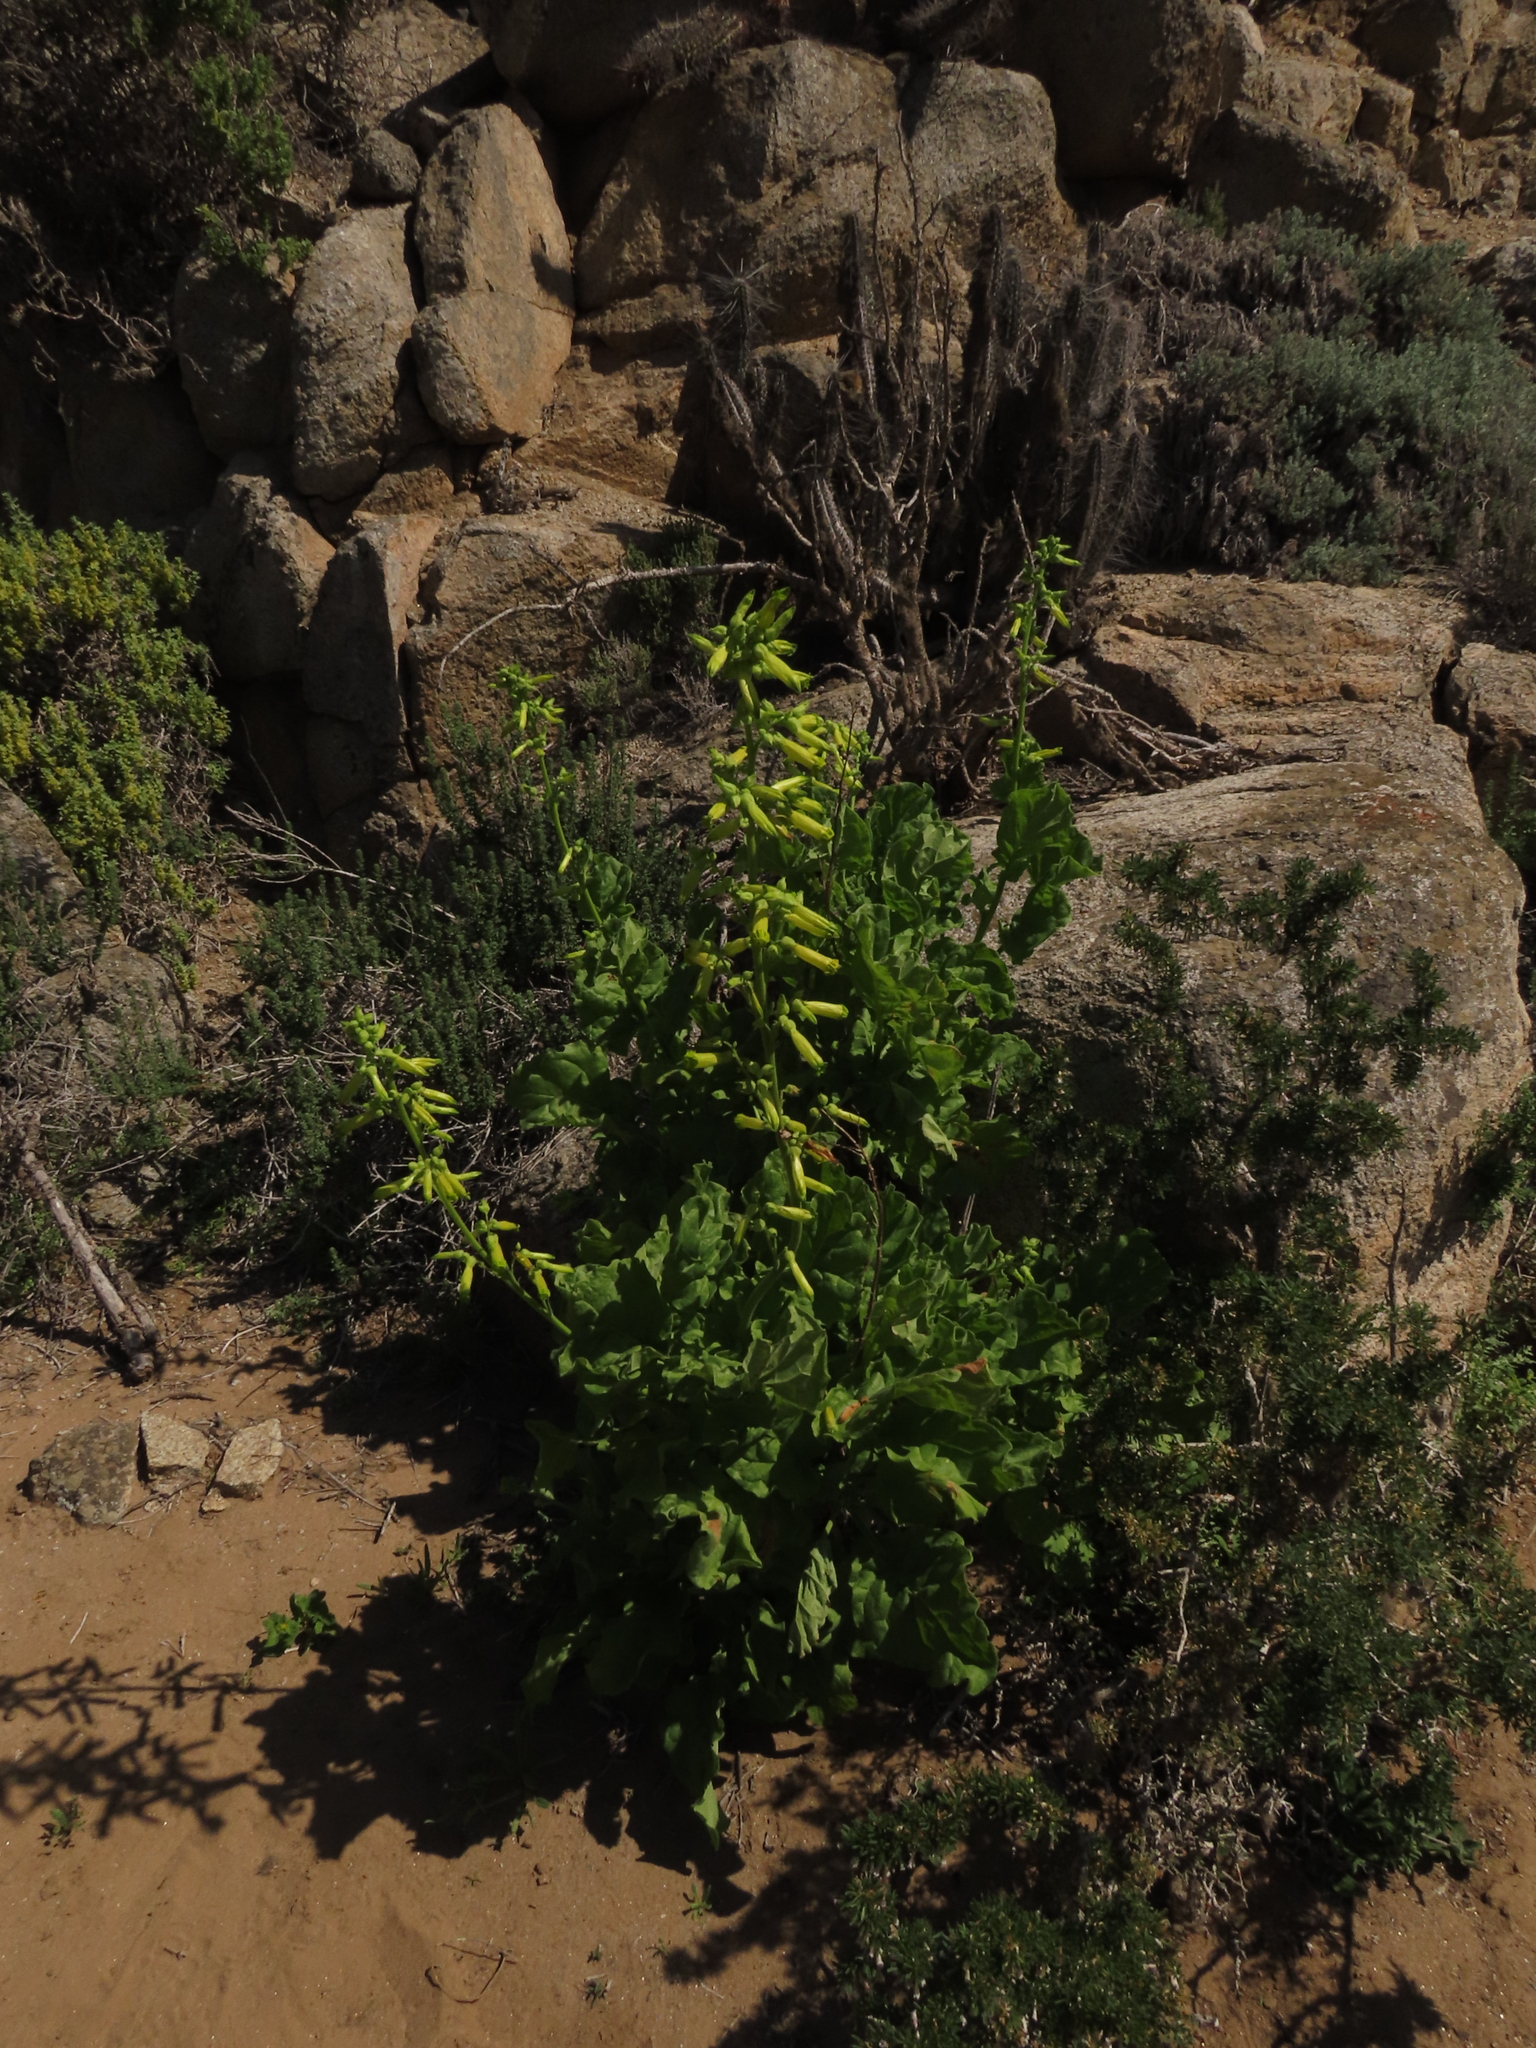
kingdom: Plantae
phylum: Tracheophyta
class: Magnoliopsida
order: Solanales
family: Solanaceae
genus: Nicotiana
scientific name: Nicotiana solanifolia
